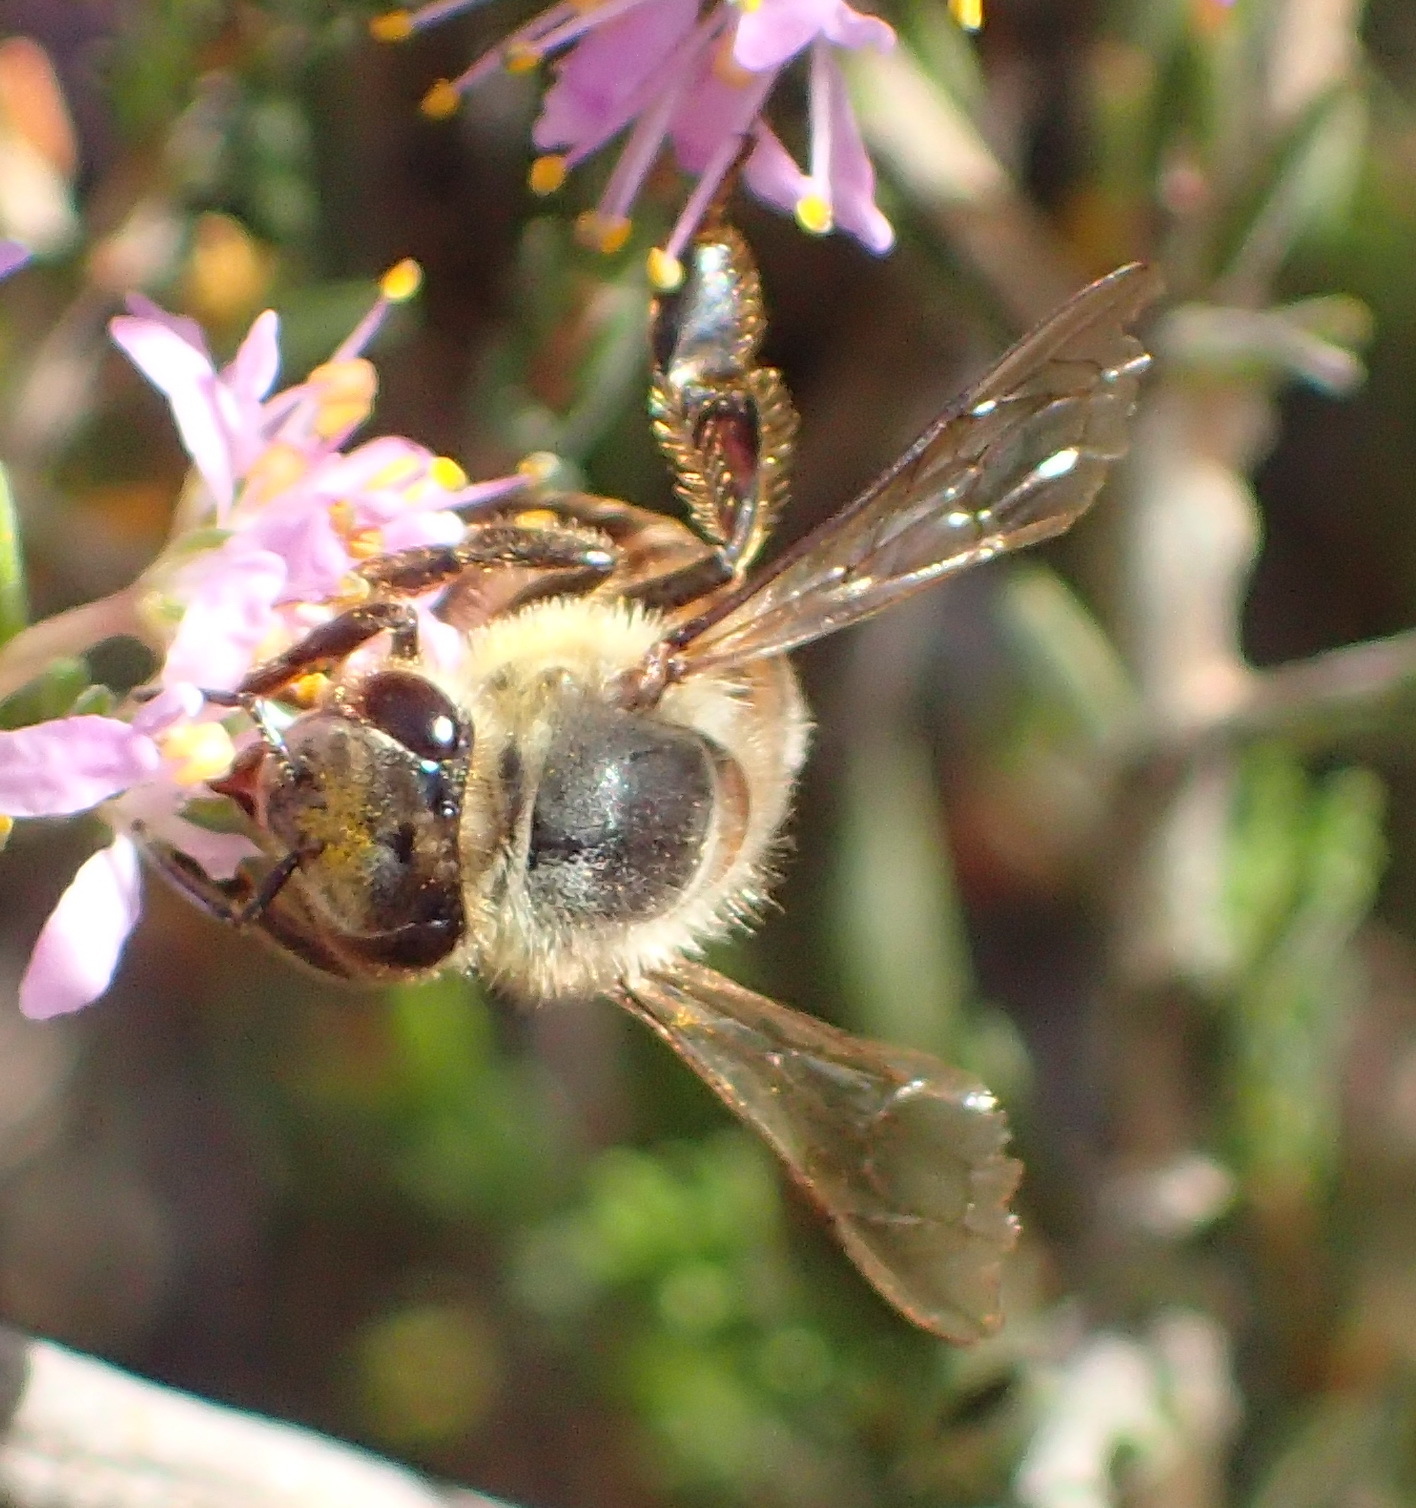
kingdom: Animalia
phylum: Arthropoda
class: Insecta
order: Hymenoptera
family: Apidae
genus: Apis
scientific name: Apis mellifera
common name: Honey bee
